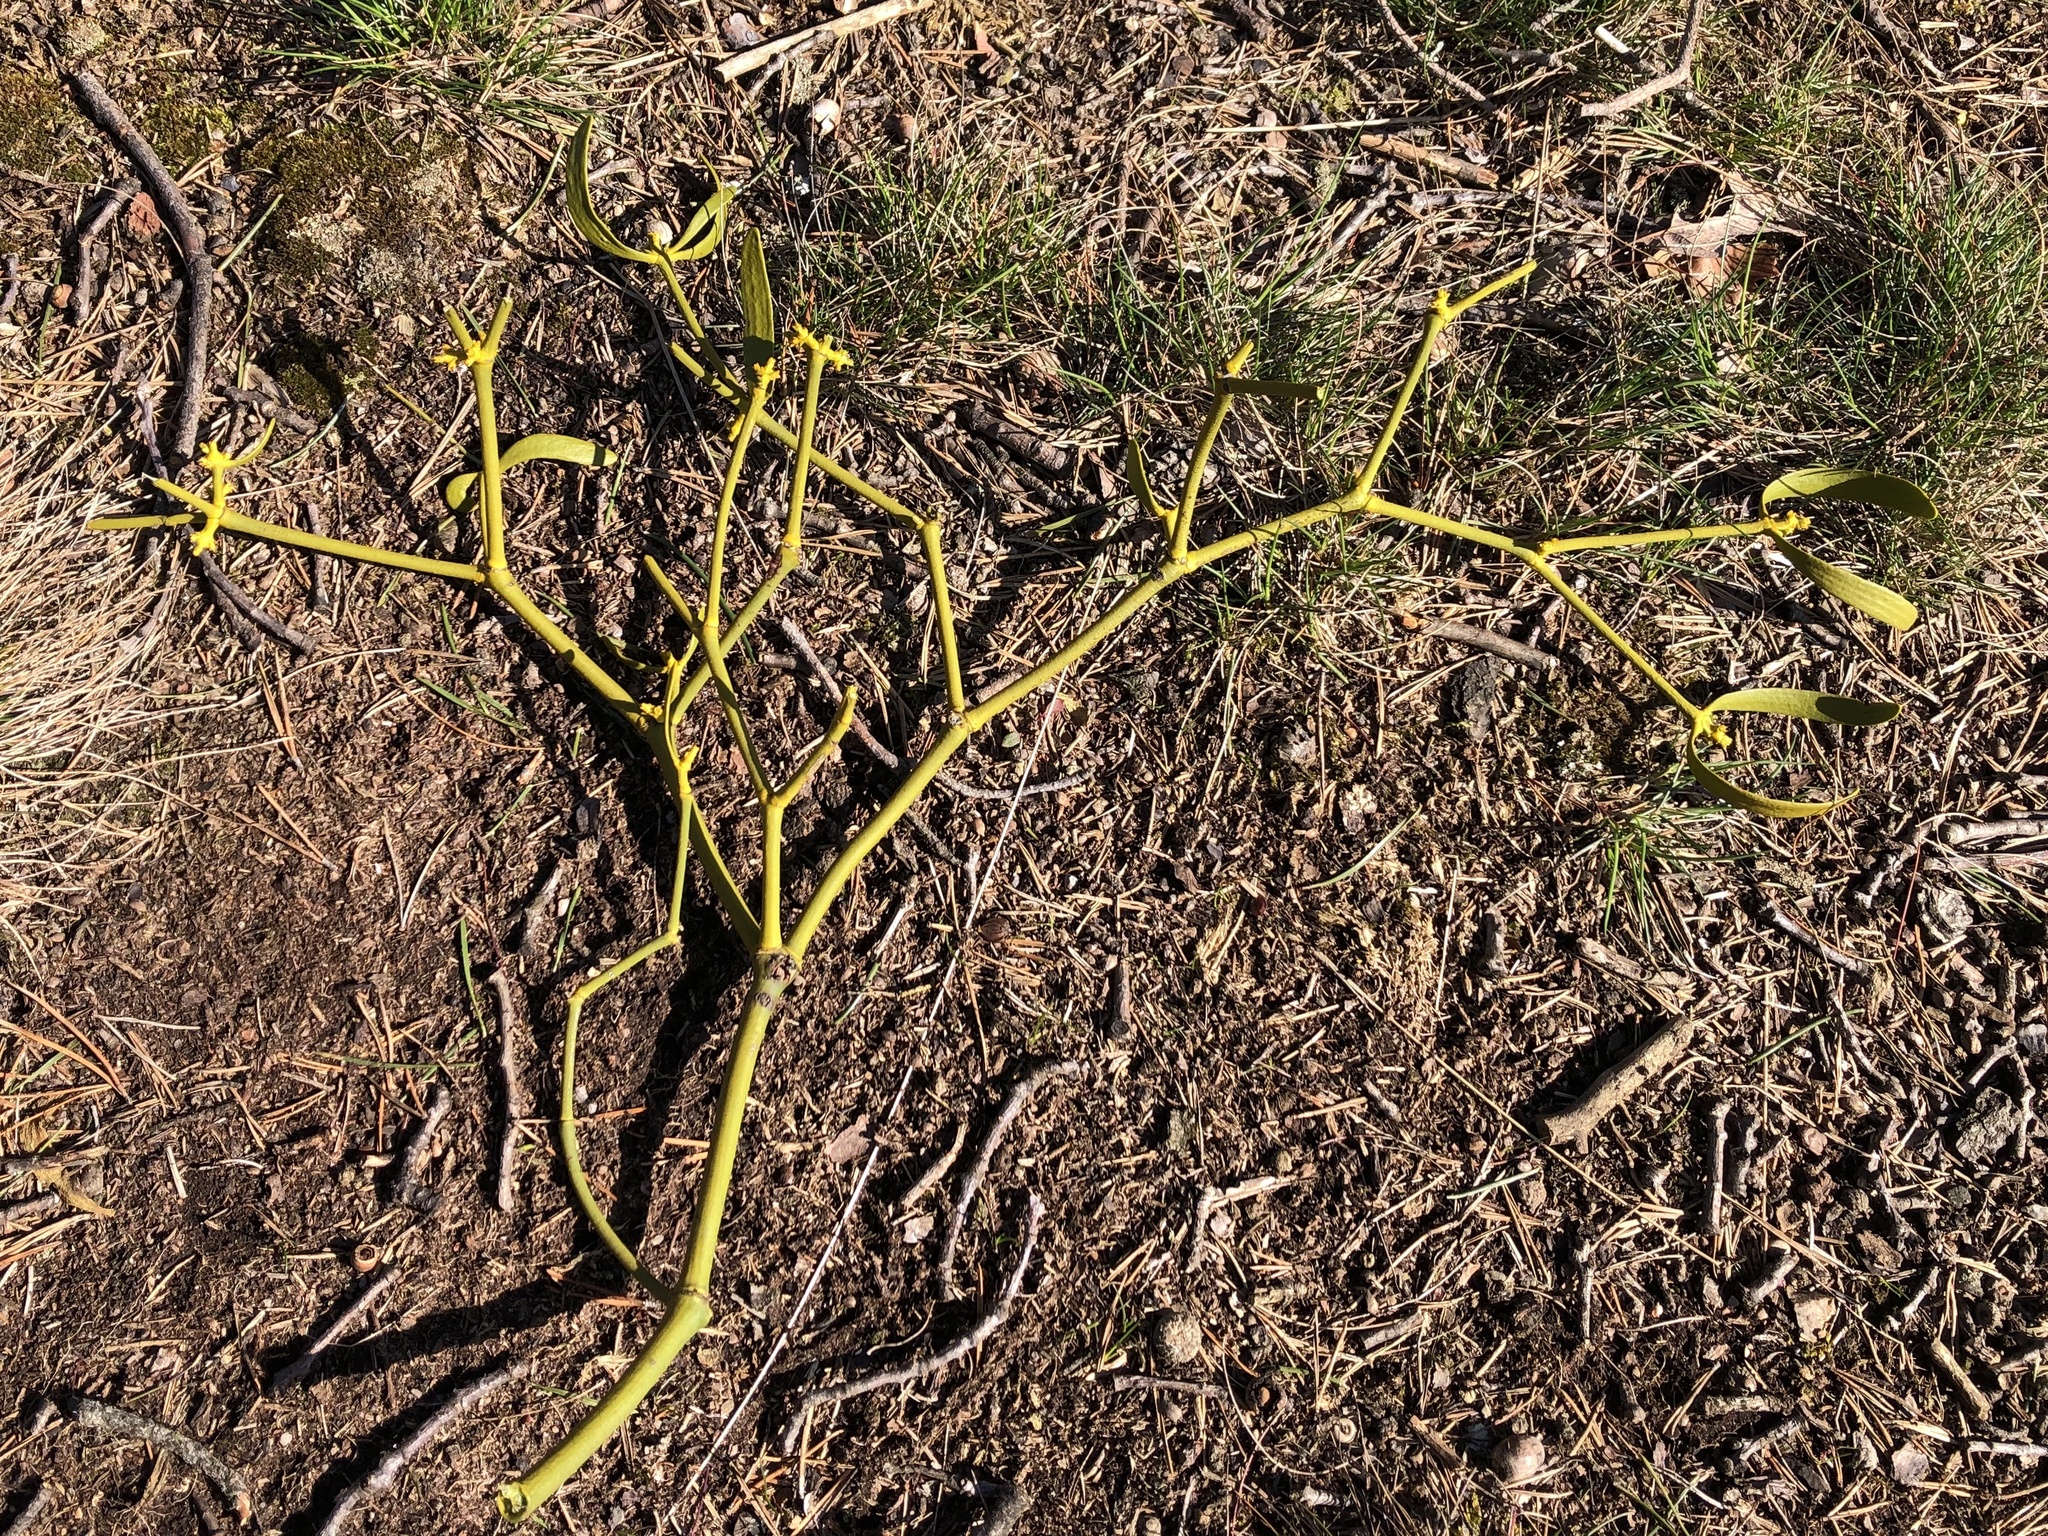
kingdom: Plantae
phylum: Tracheophyta
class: Magnoliopsida
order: Santalales
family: Viscaceae
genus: Viscum
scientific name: Viscum laxum
